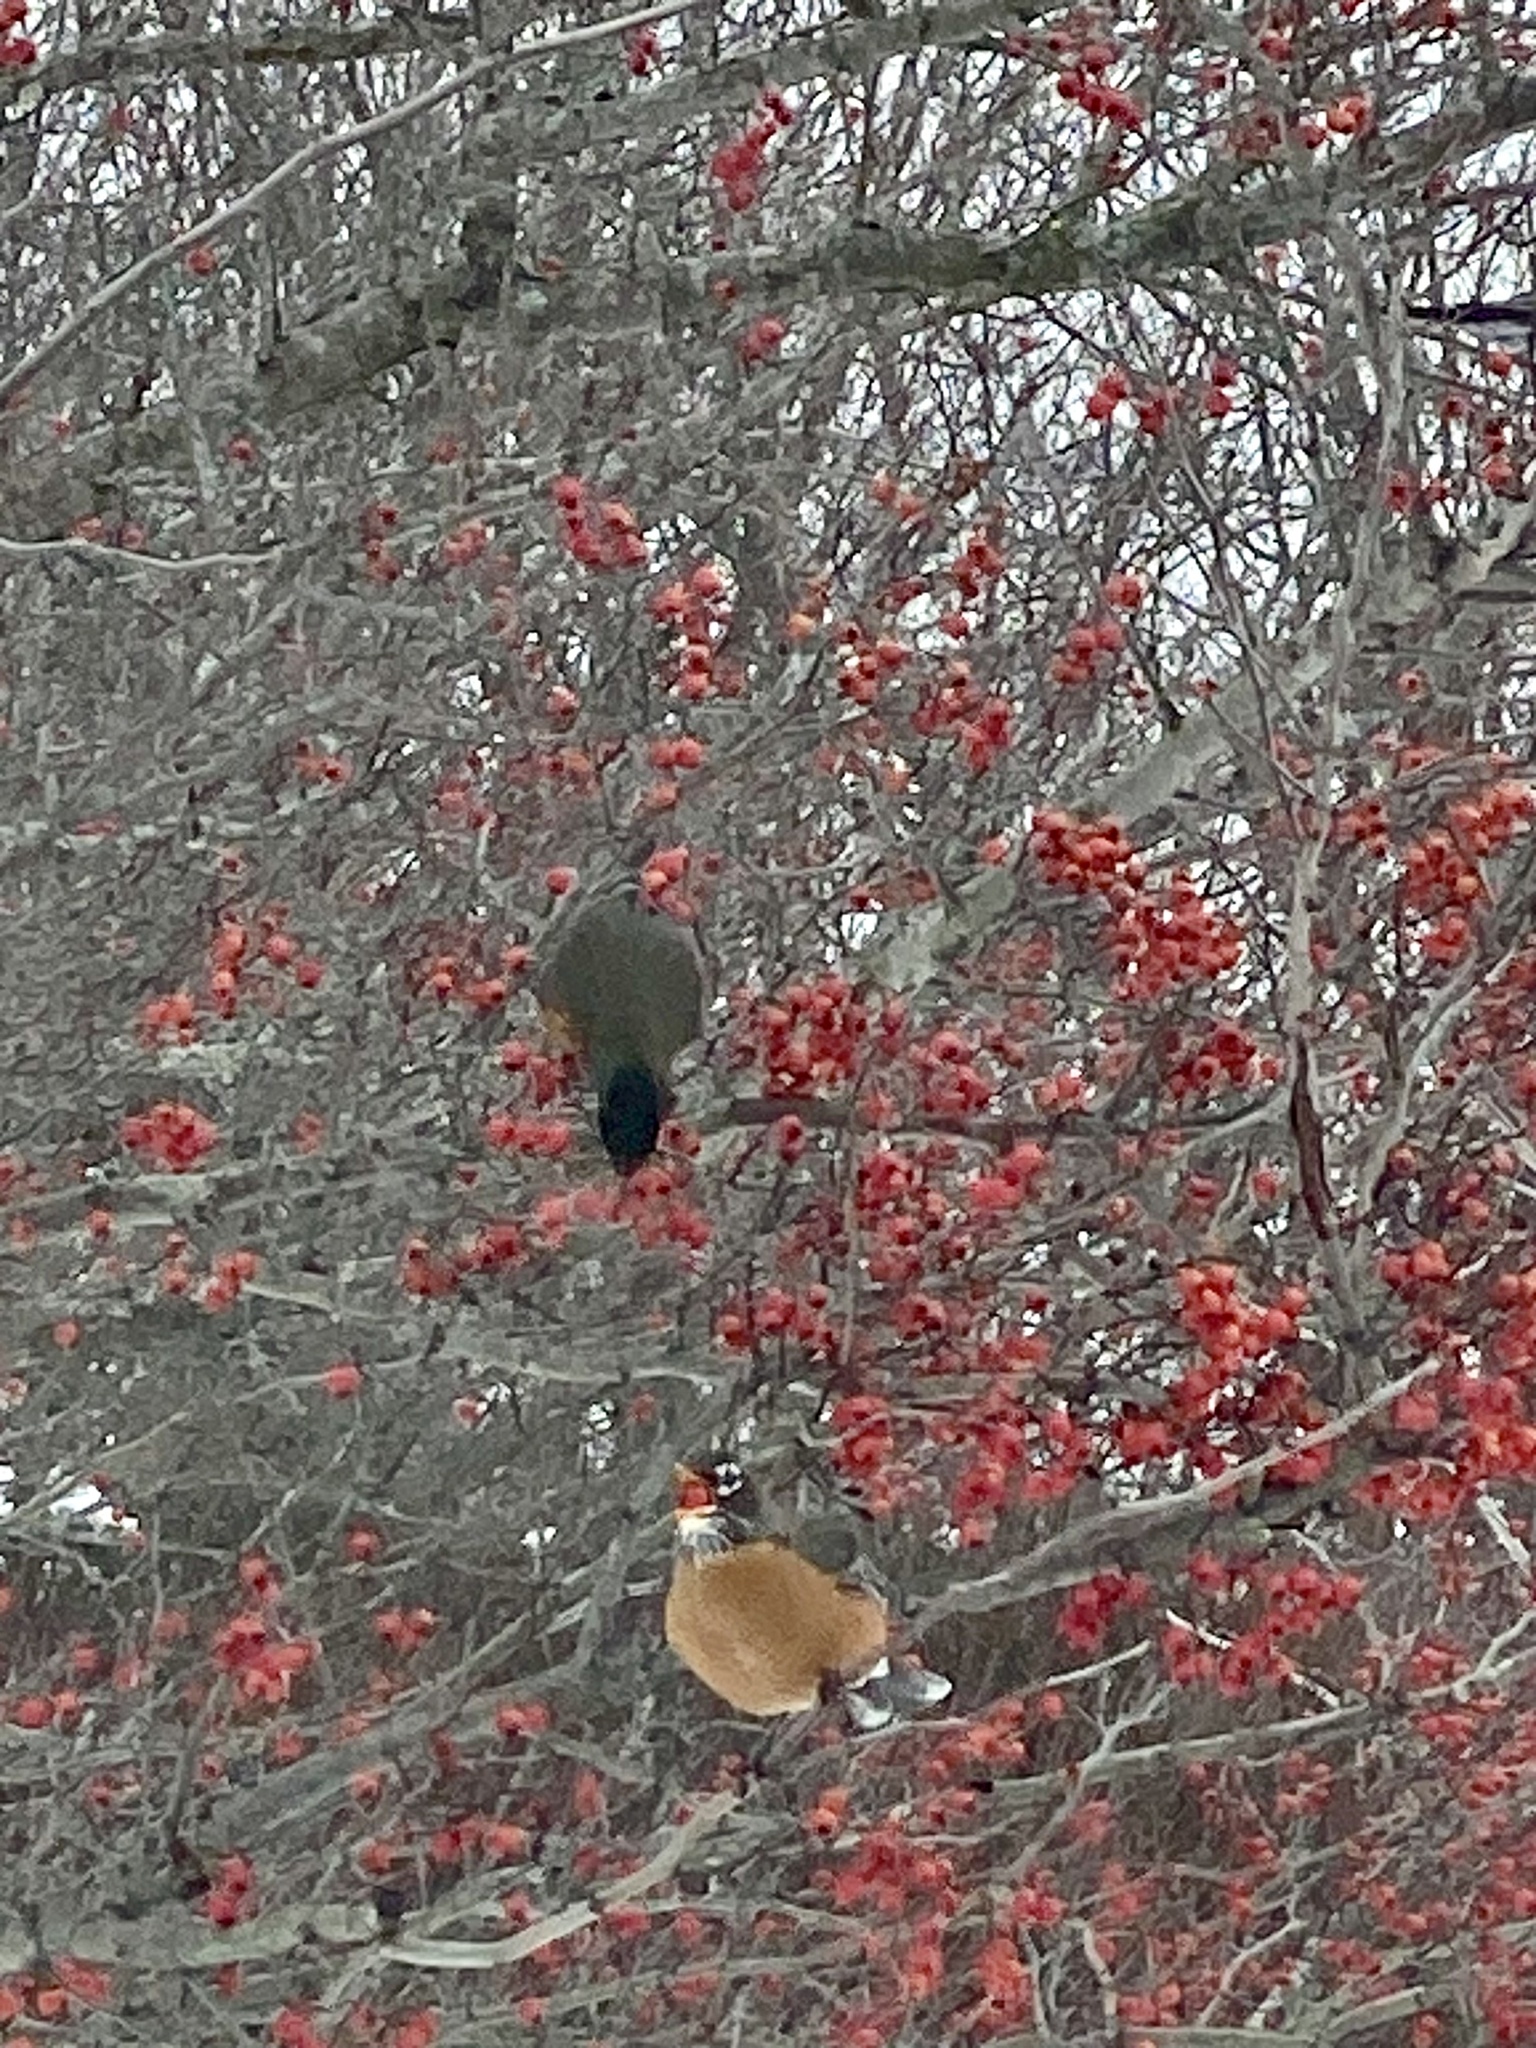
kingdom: Animalia
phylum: Chordata
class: Aves
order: Passeriformes
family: Turdidae
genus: Turdus
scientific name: Turdus migratorius
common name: American robin
